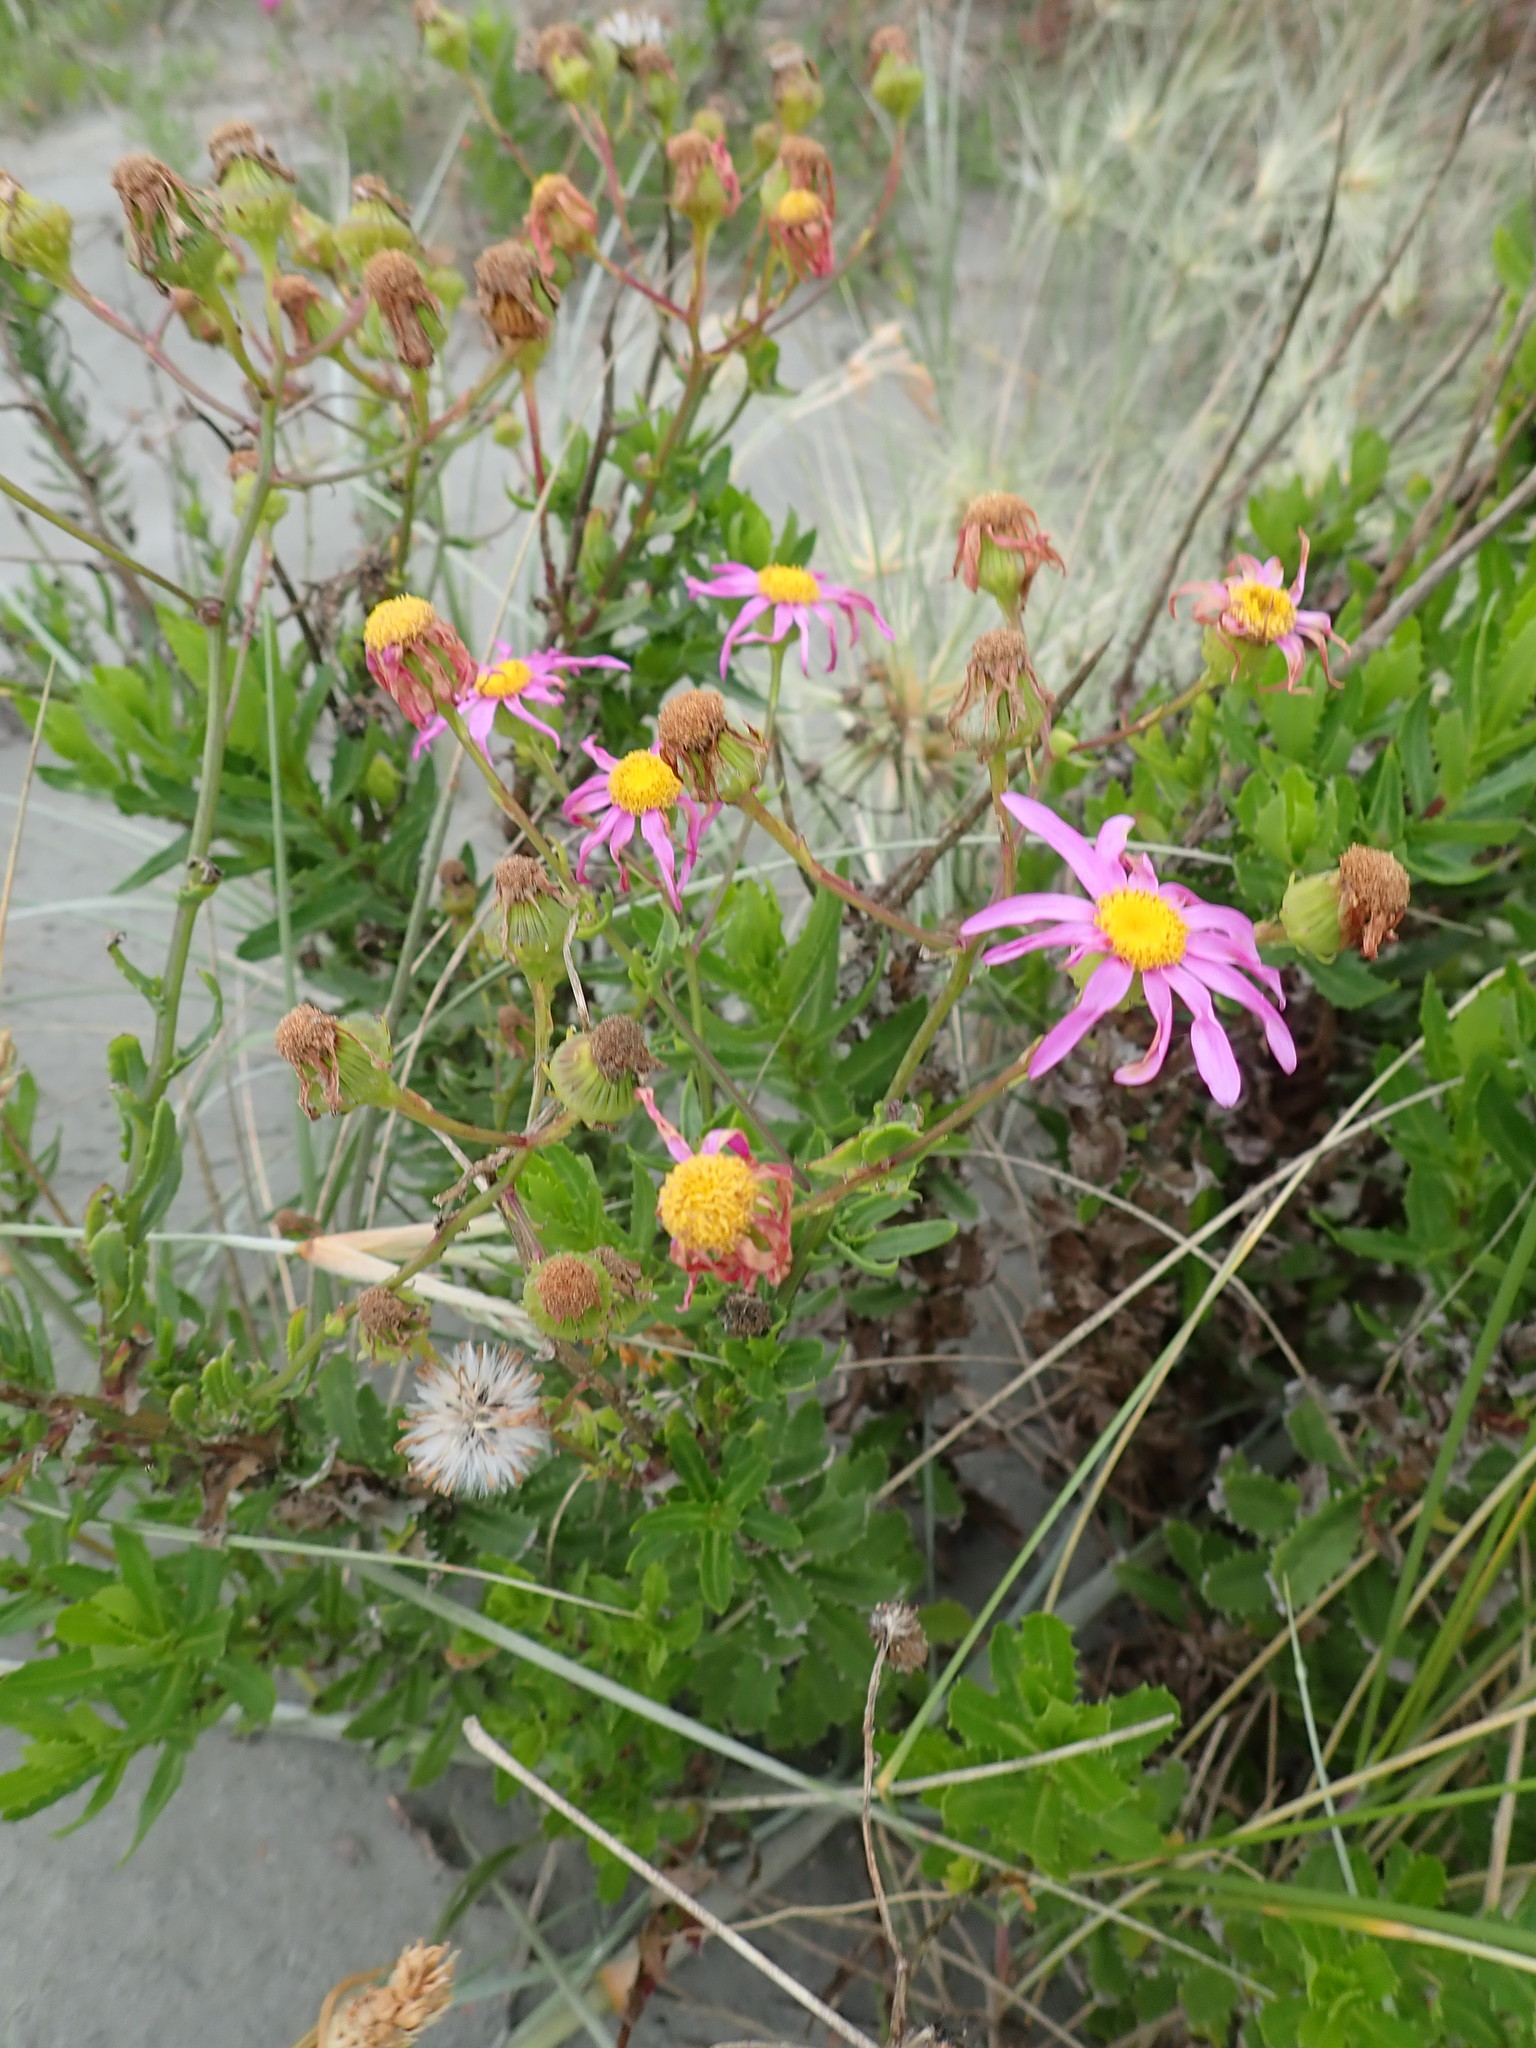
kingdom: Plantae
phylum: Tracheophyta
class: Magnoliopsida
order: Asterales
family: Asteraceae
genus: Senecio
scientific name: Senecio glastifolius
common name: Woad-leaved ragwort
